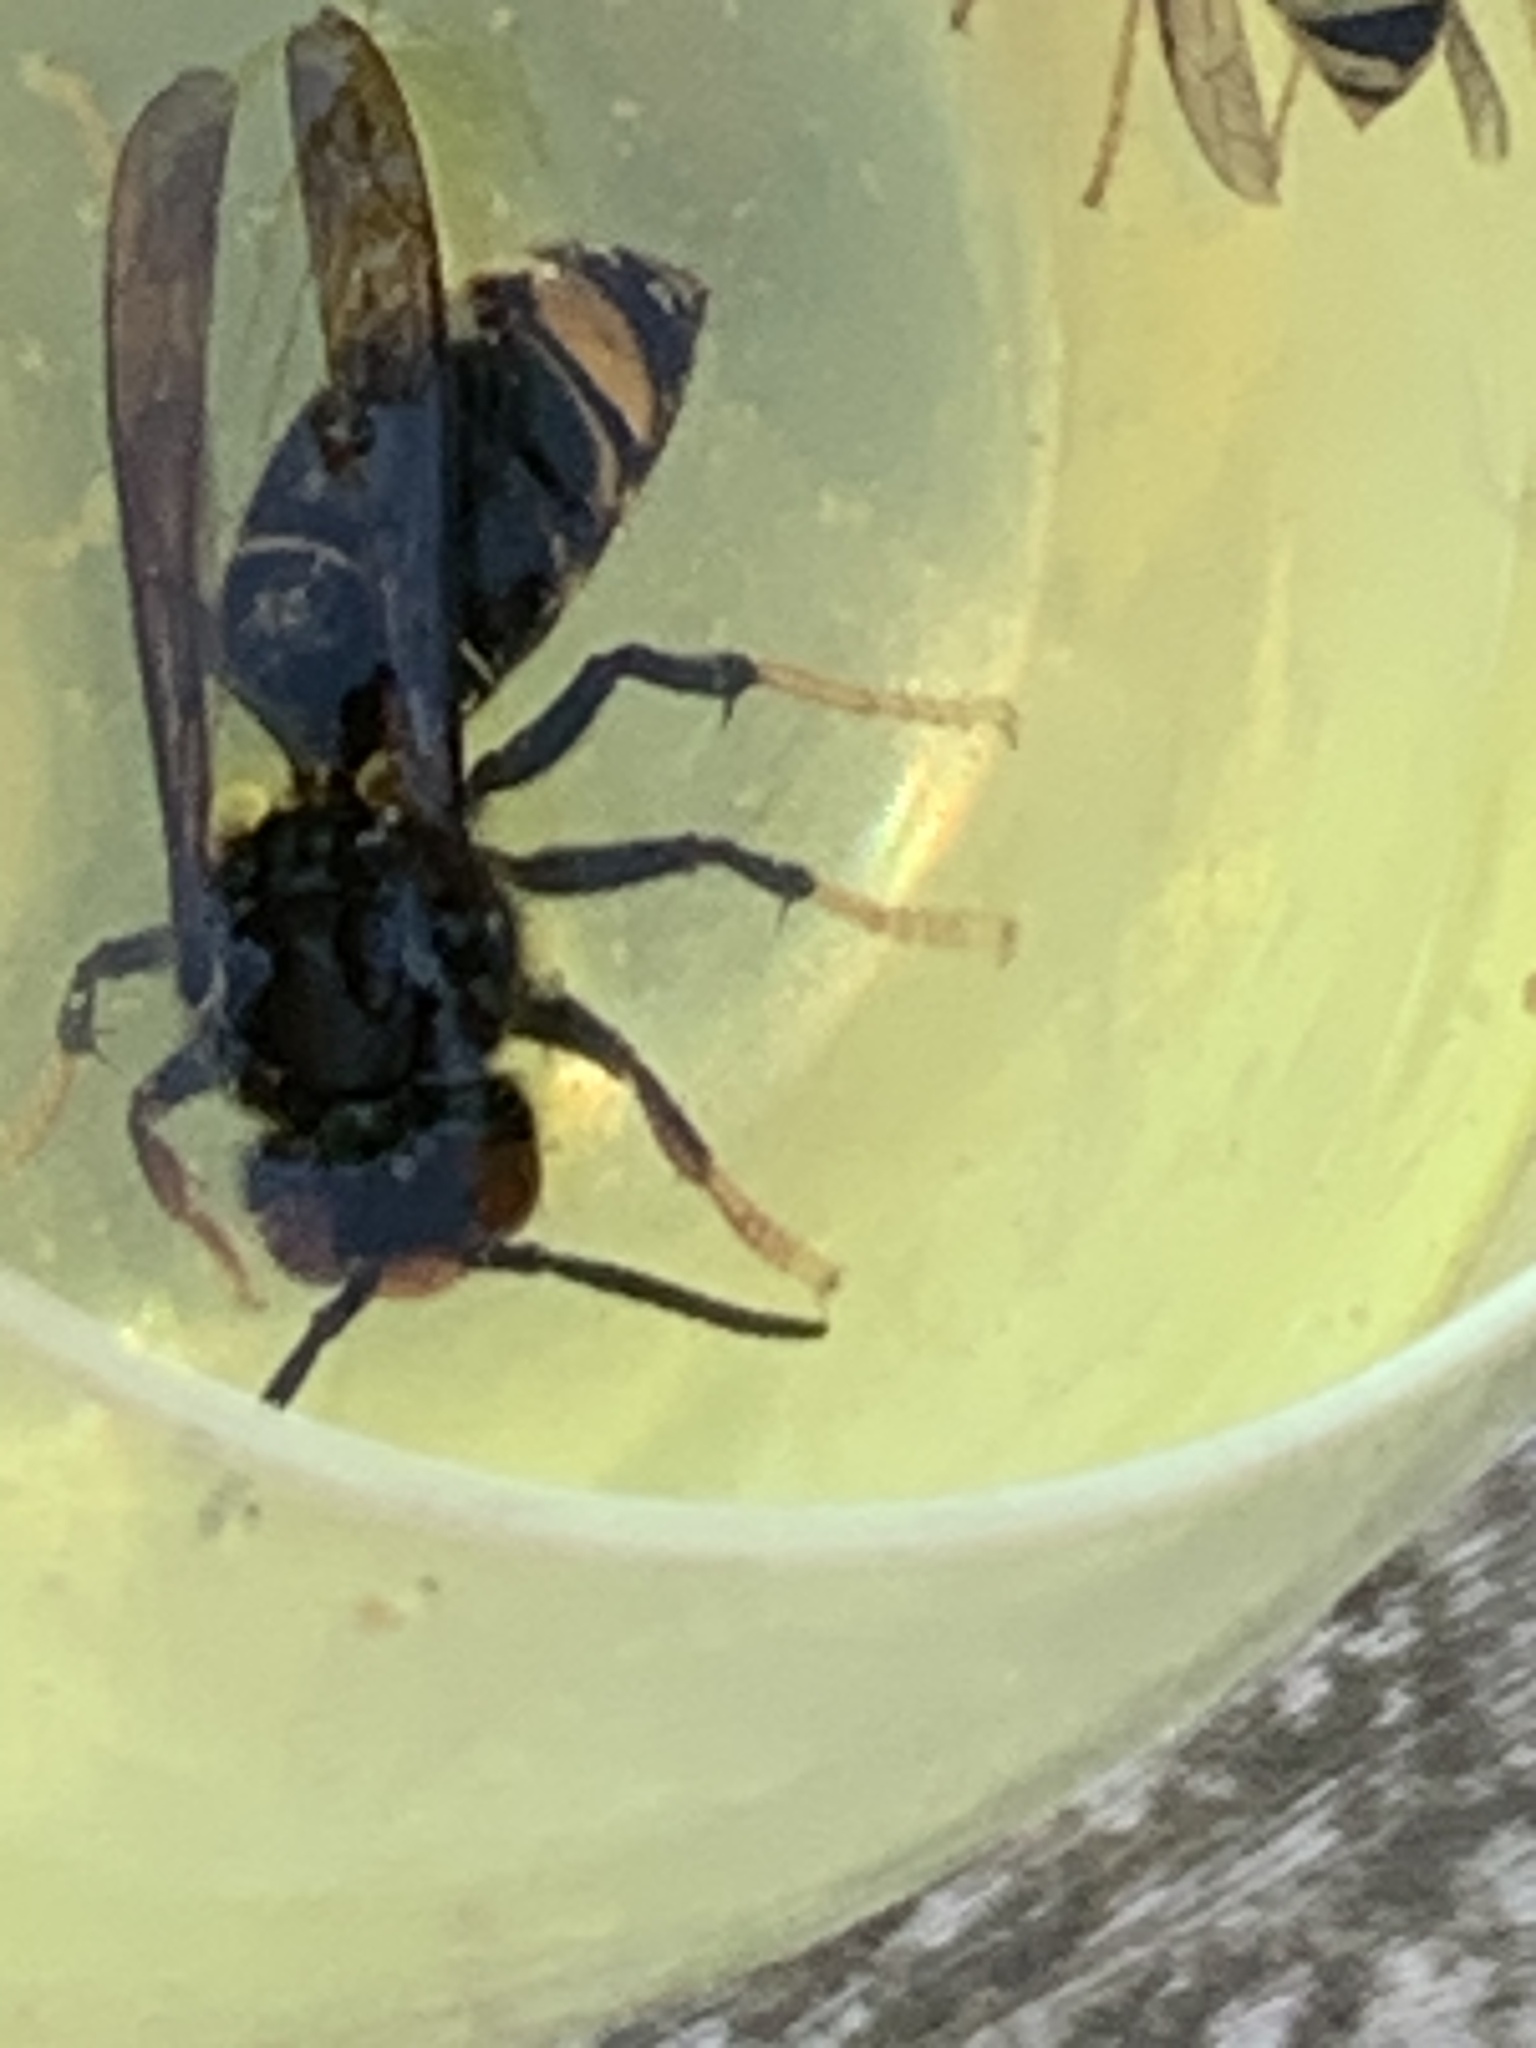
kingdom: Animalia
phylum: Arthropoda
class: Insecta
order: Hymenoptera
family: Vespidae
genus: Vespa
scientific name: Vespa velutina
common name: Asian hornet
